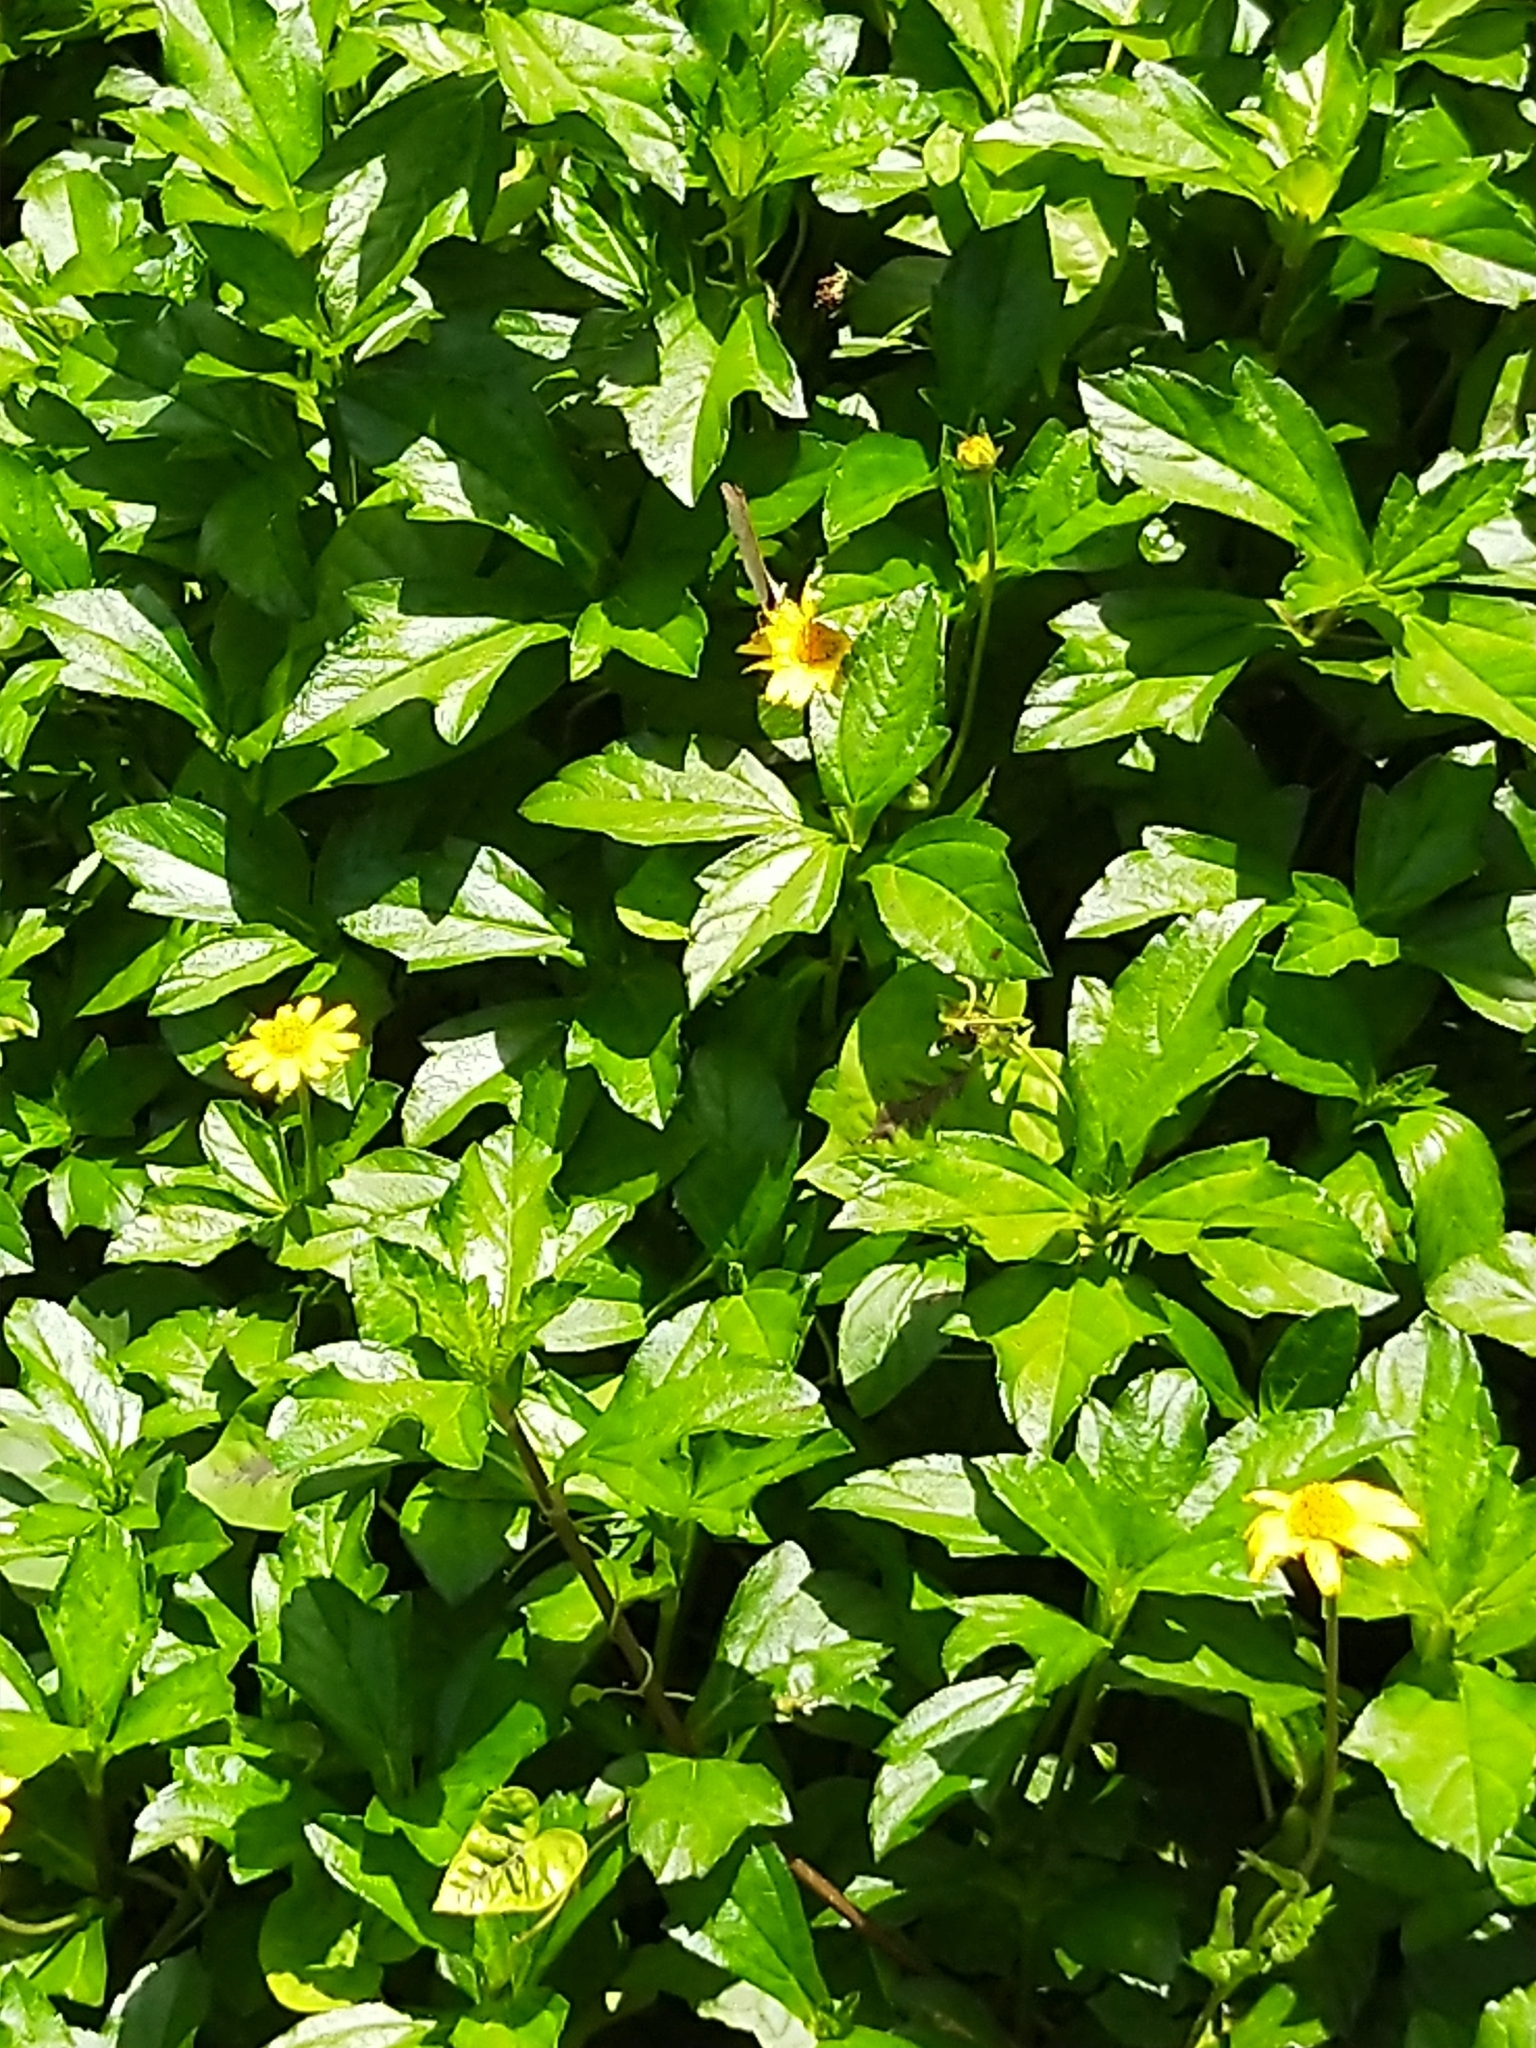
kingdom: Plantae
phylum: Tracheophyta
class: Magnoliopsida
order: Asterales
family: Asteraceae
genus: Sphagneticola
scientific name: Sphagneticola trilobata
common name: Bay biscayne creeping-oxeye
